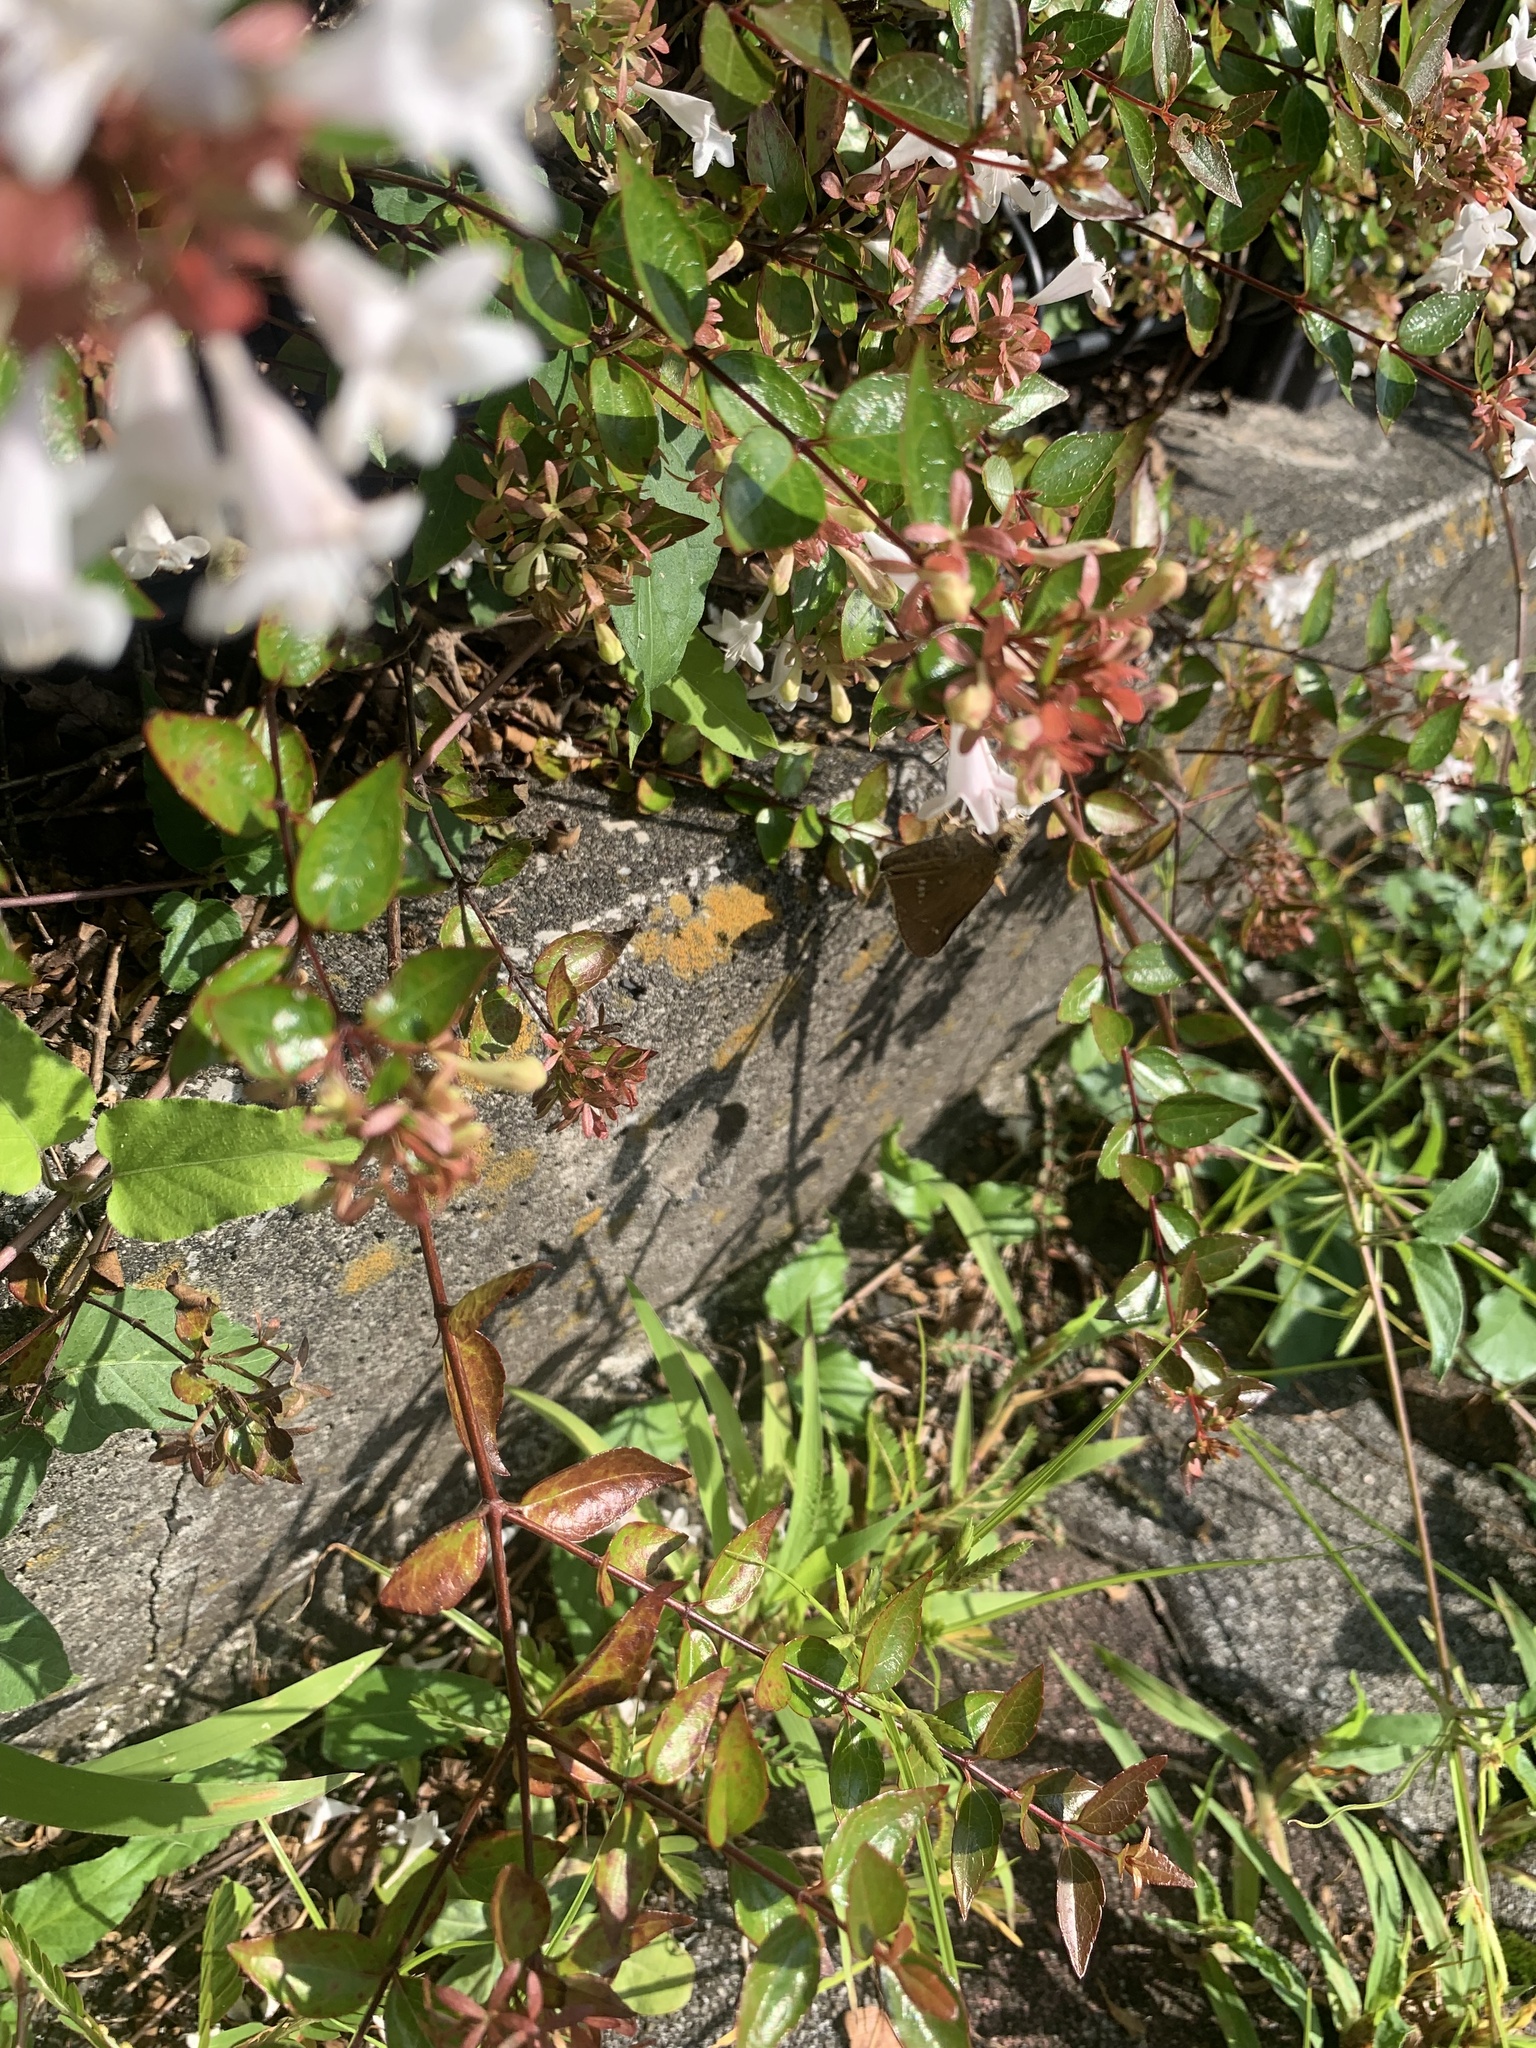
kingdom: Animalia
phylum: Arthropoda
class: Insecta
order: Lepidoptera
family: Hesperiidae
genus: Parnara
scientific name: Parnara guttatus
